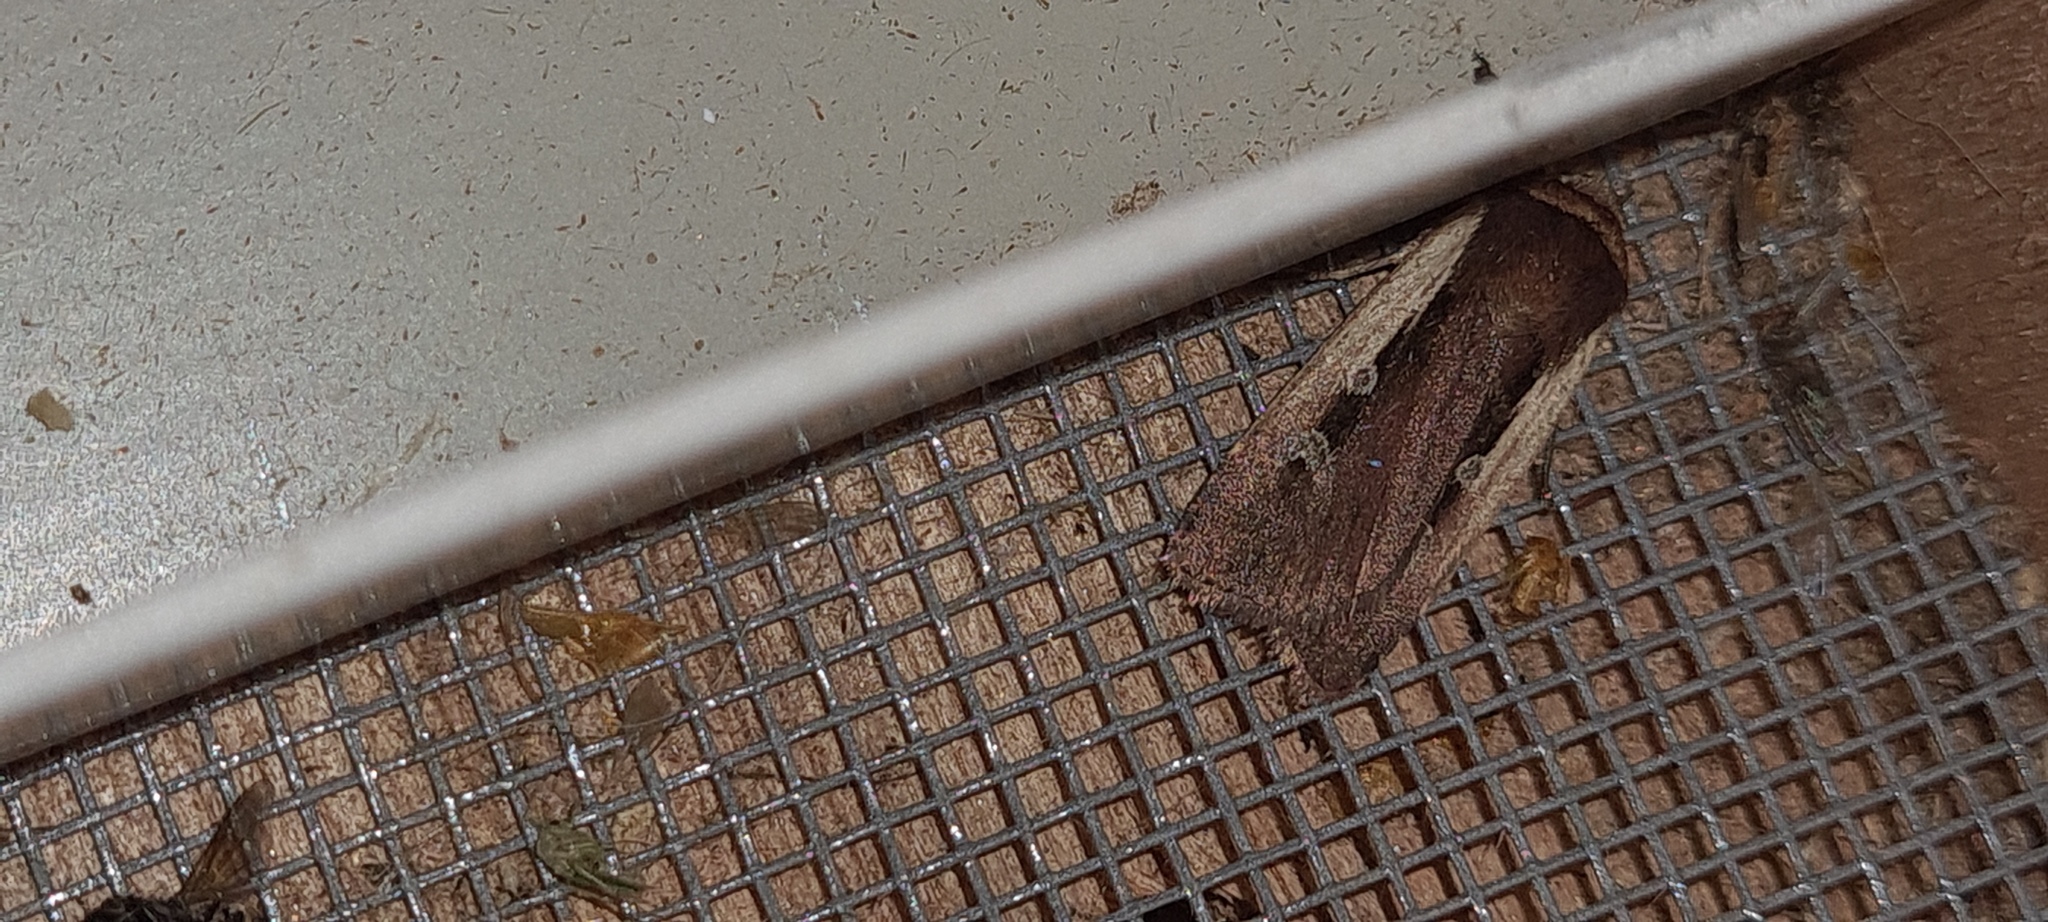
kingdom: Animalia
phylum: Arthropoda
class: Insecta
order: Lepidoptera
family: Noctuidae
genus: Ochropleura
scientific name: Ochropleura plecta
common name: Flame shoulder
